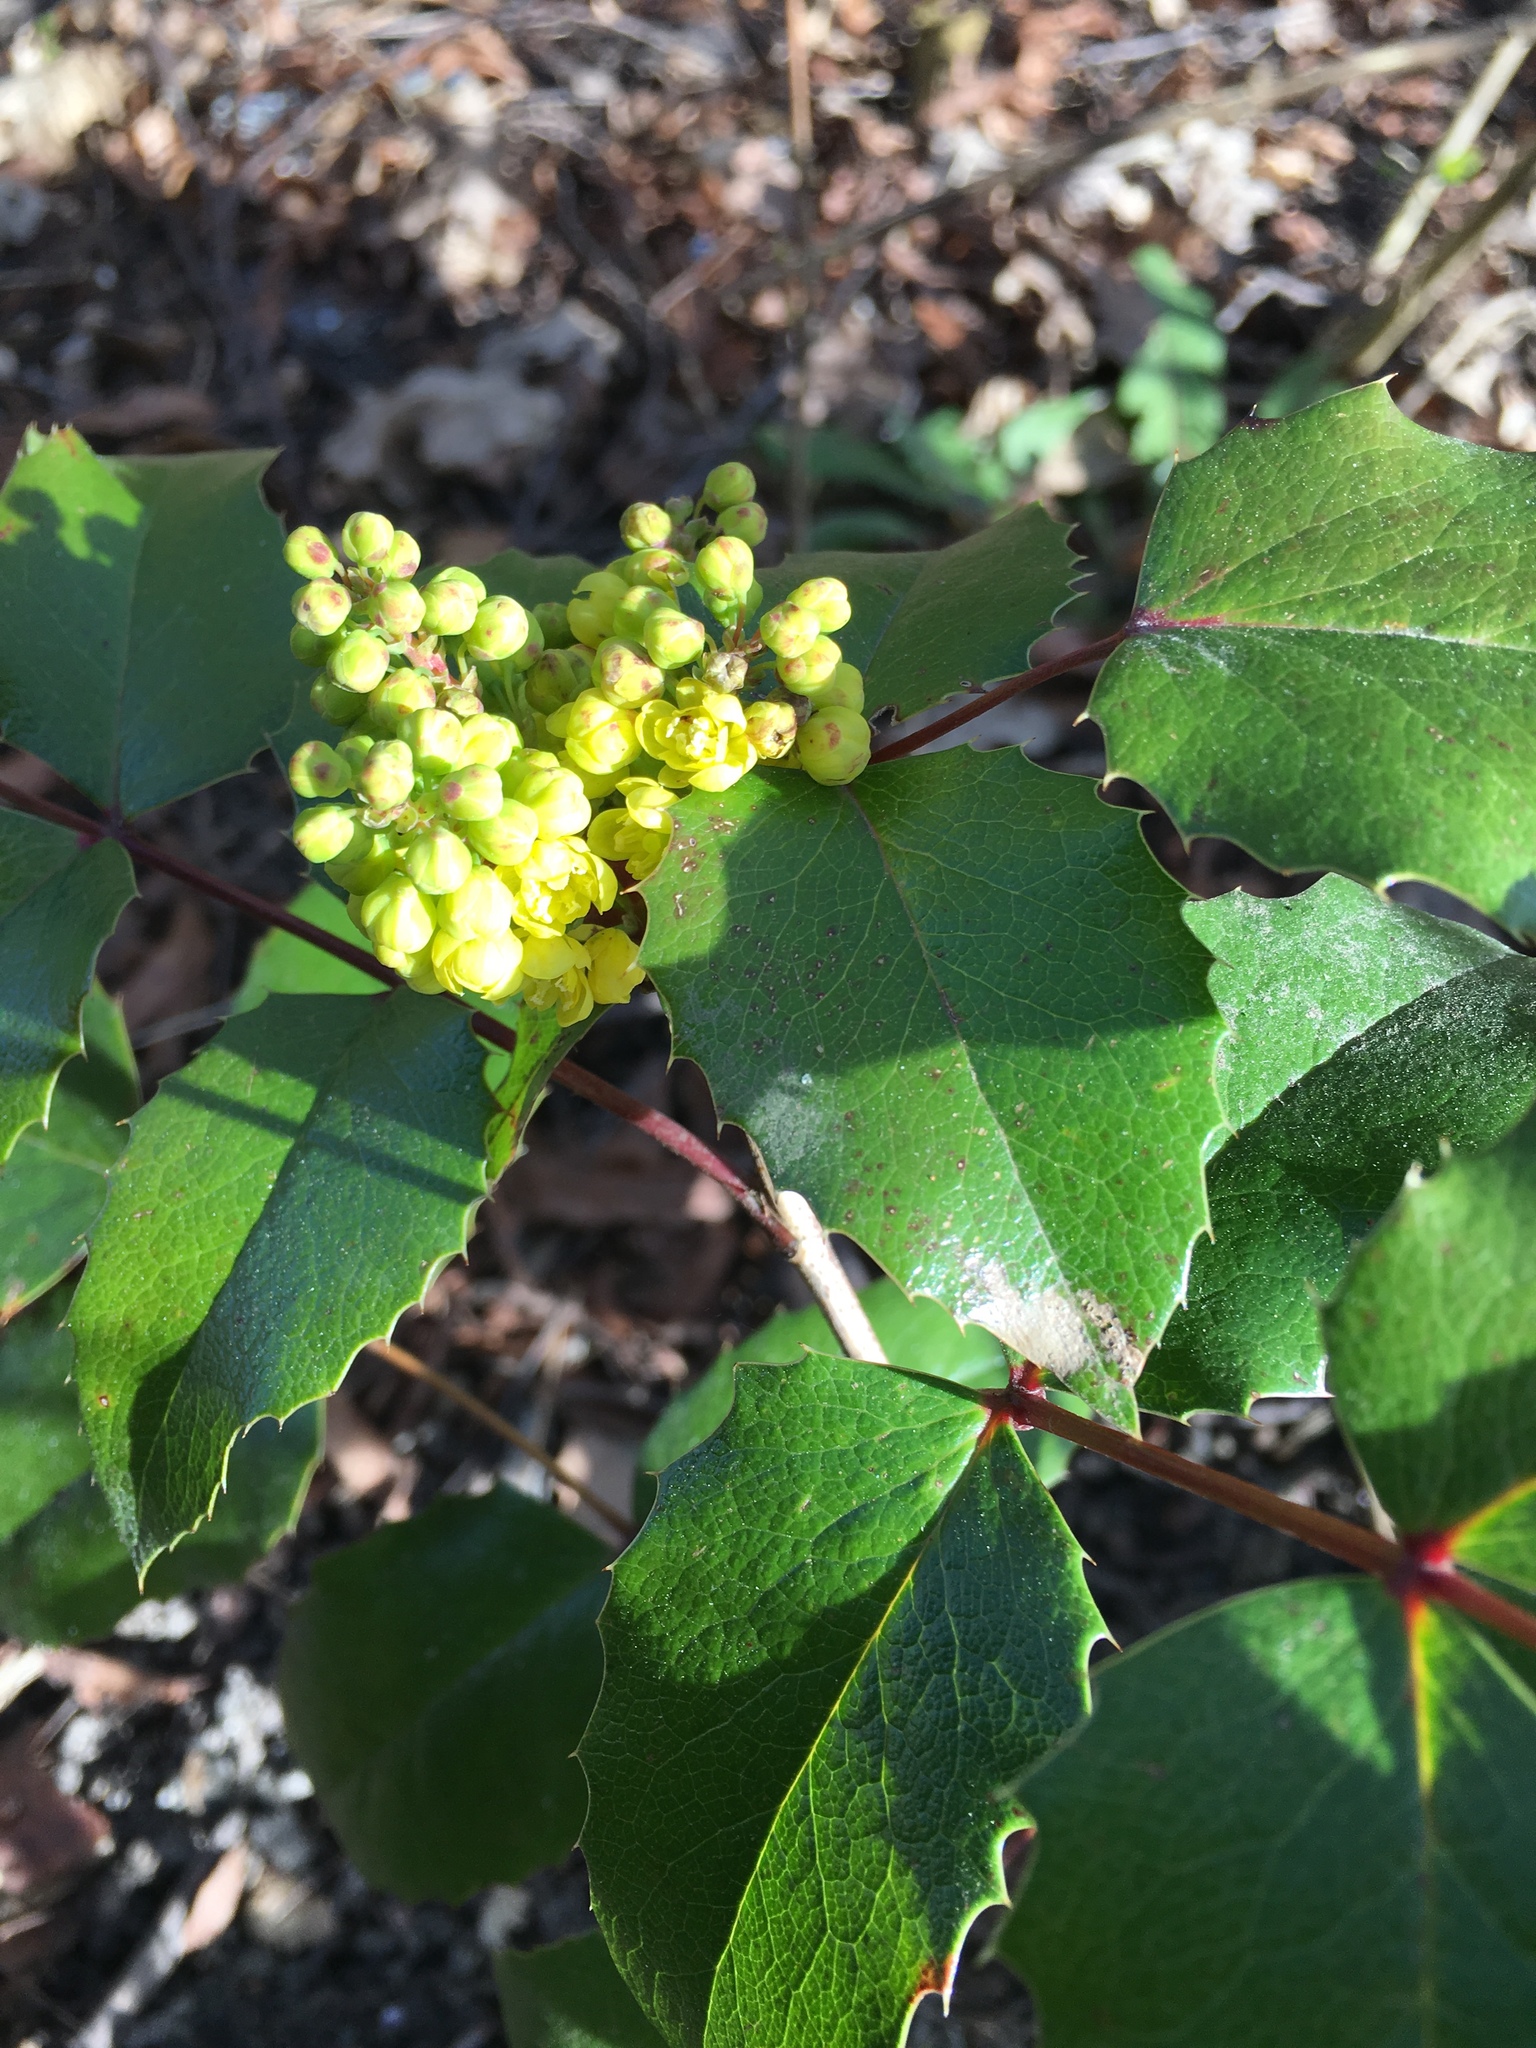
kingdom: Plantae
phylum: Tracheophyta
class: Magnoliopsida
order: Ranunculales
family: Berberidaceae
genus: Mahonia
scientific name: Mahonia aquifolium
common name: Oregon-grape
